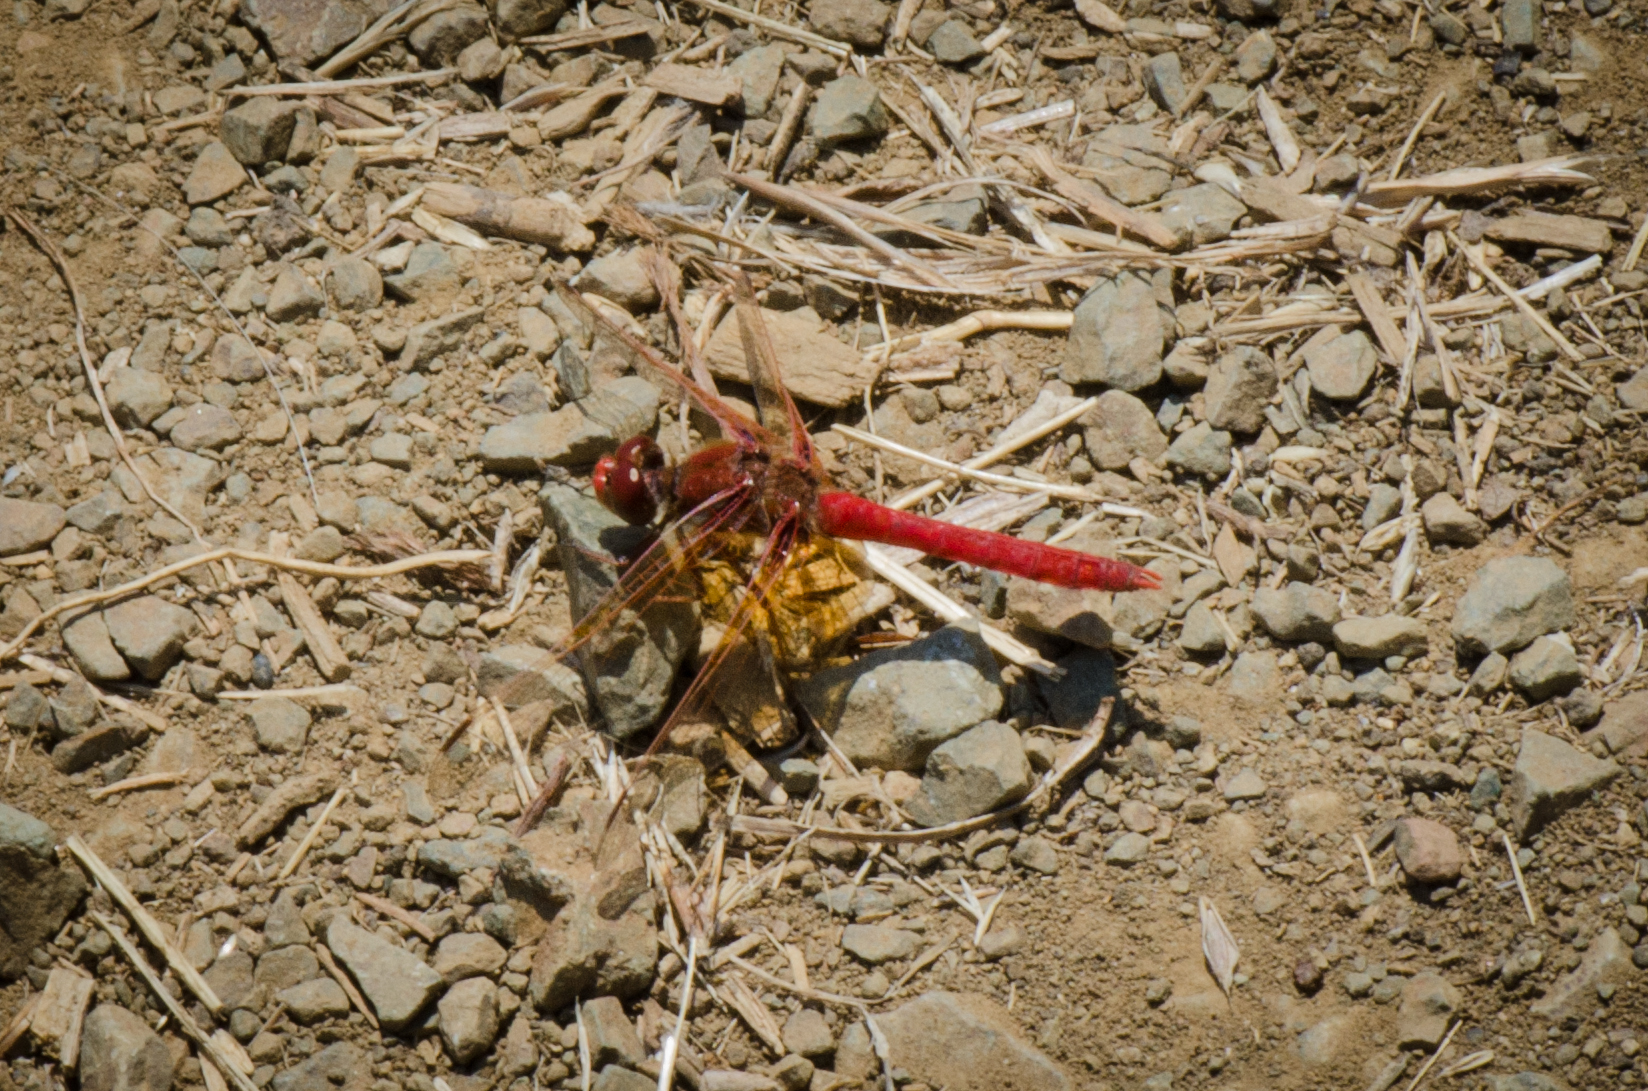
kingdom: Animalia
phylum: Arthropoda
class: Insecta
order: Odonata
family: Libellulidae
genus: Sympetrum
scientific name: Sympetrum illotum
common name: Cardinal meadowhawk
